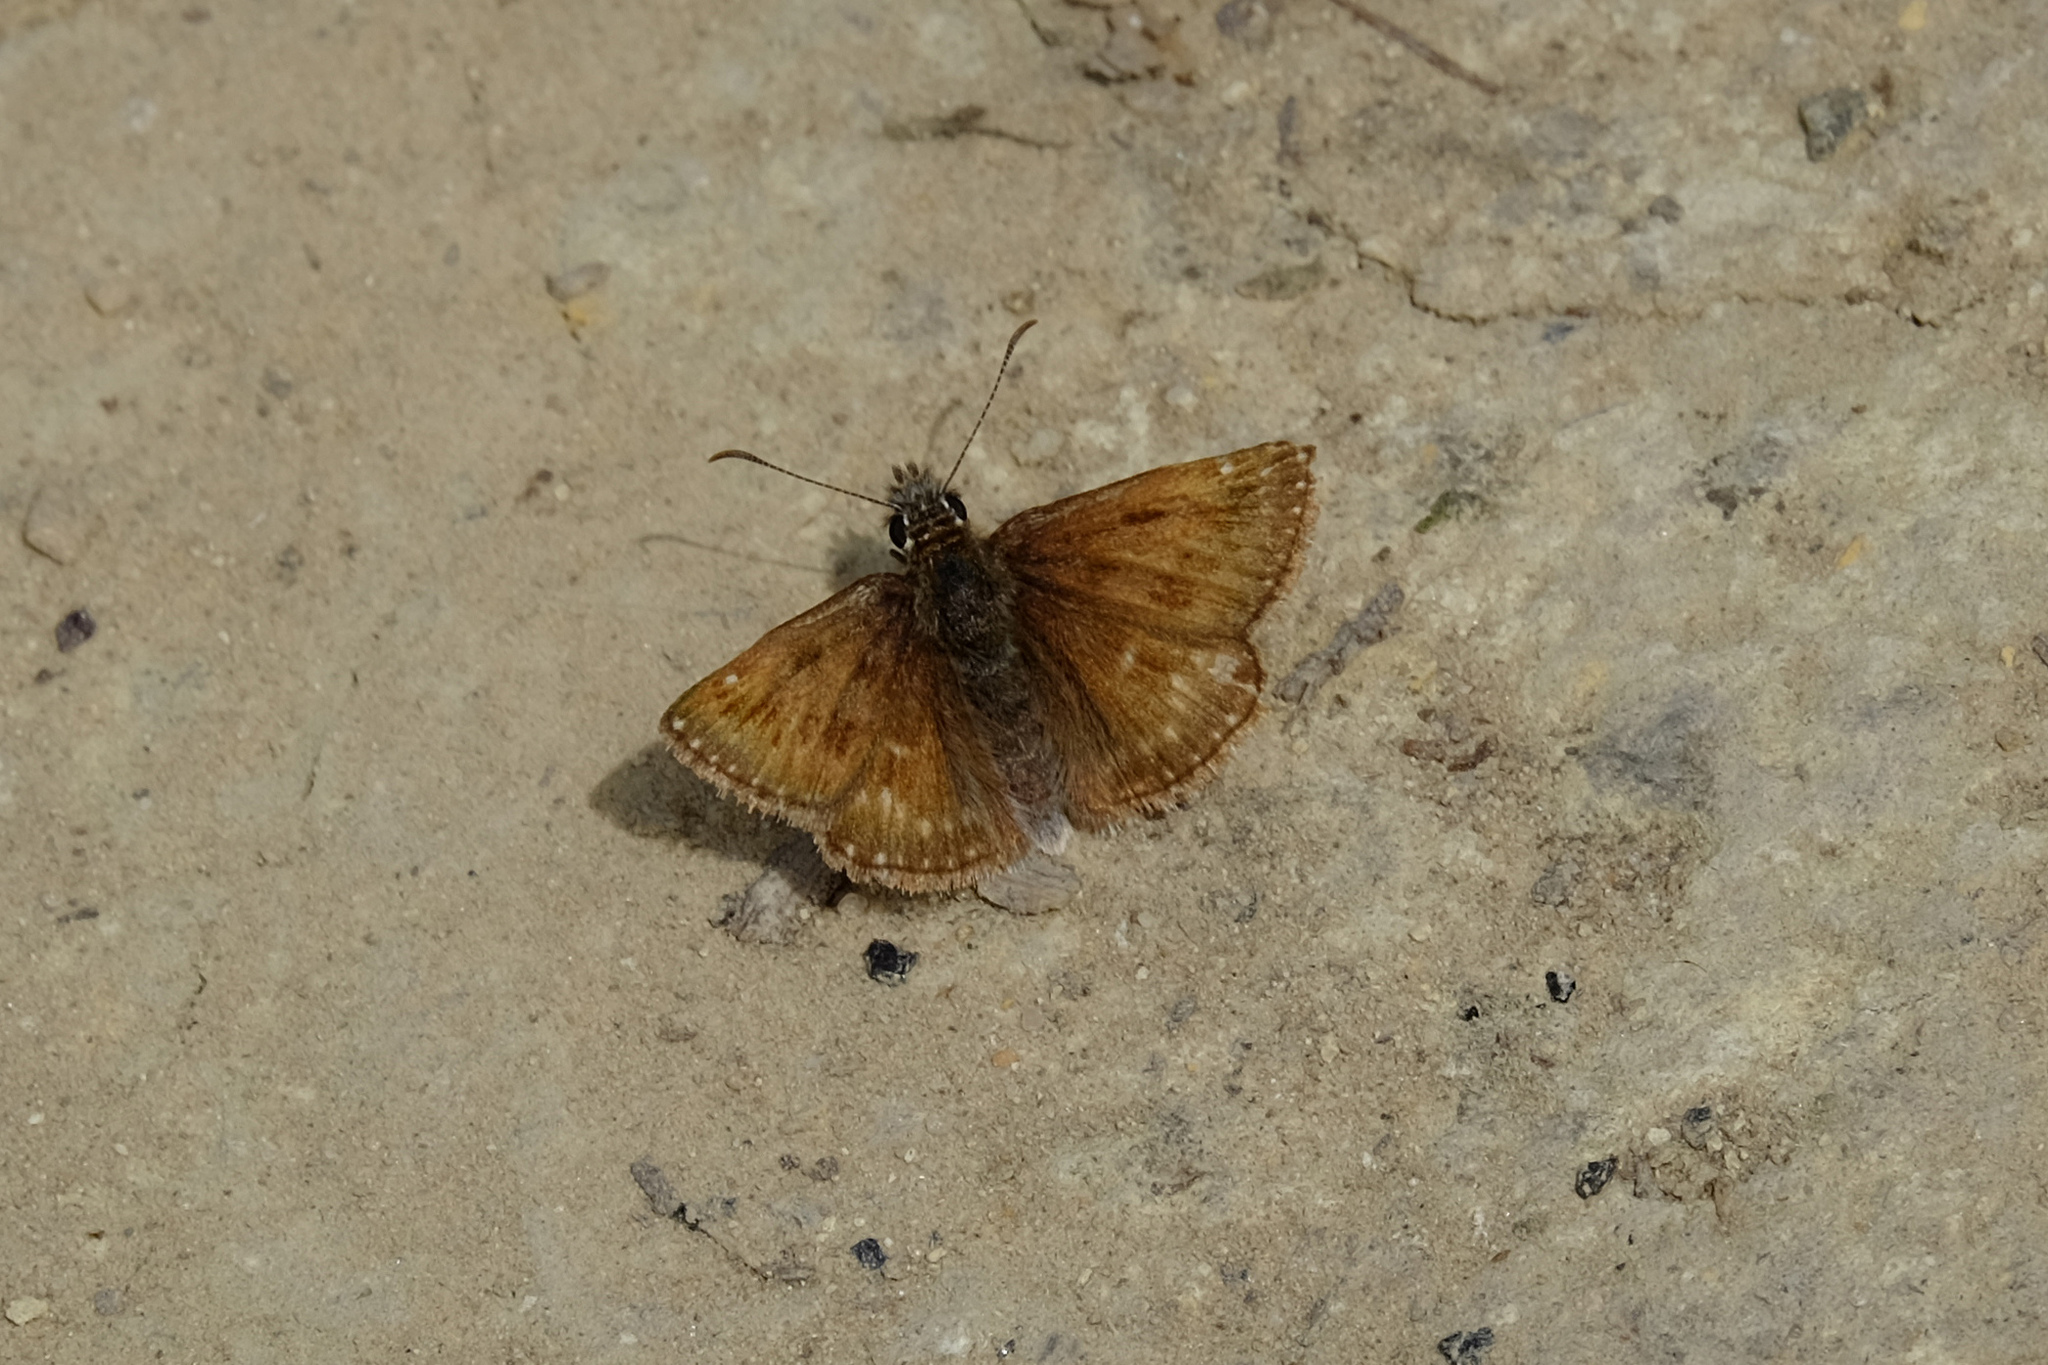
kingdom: Animalia
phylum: Arthropoda
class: Insecta
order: Lepidoptera
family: Hesperiidae
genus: Erynnis
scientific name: Erynnis tages
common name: Dingy skipper
